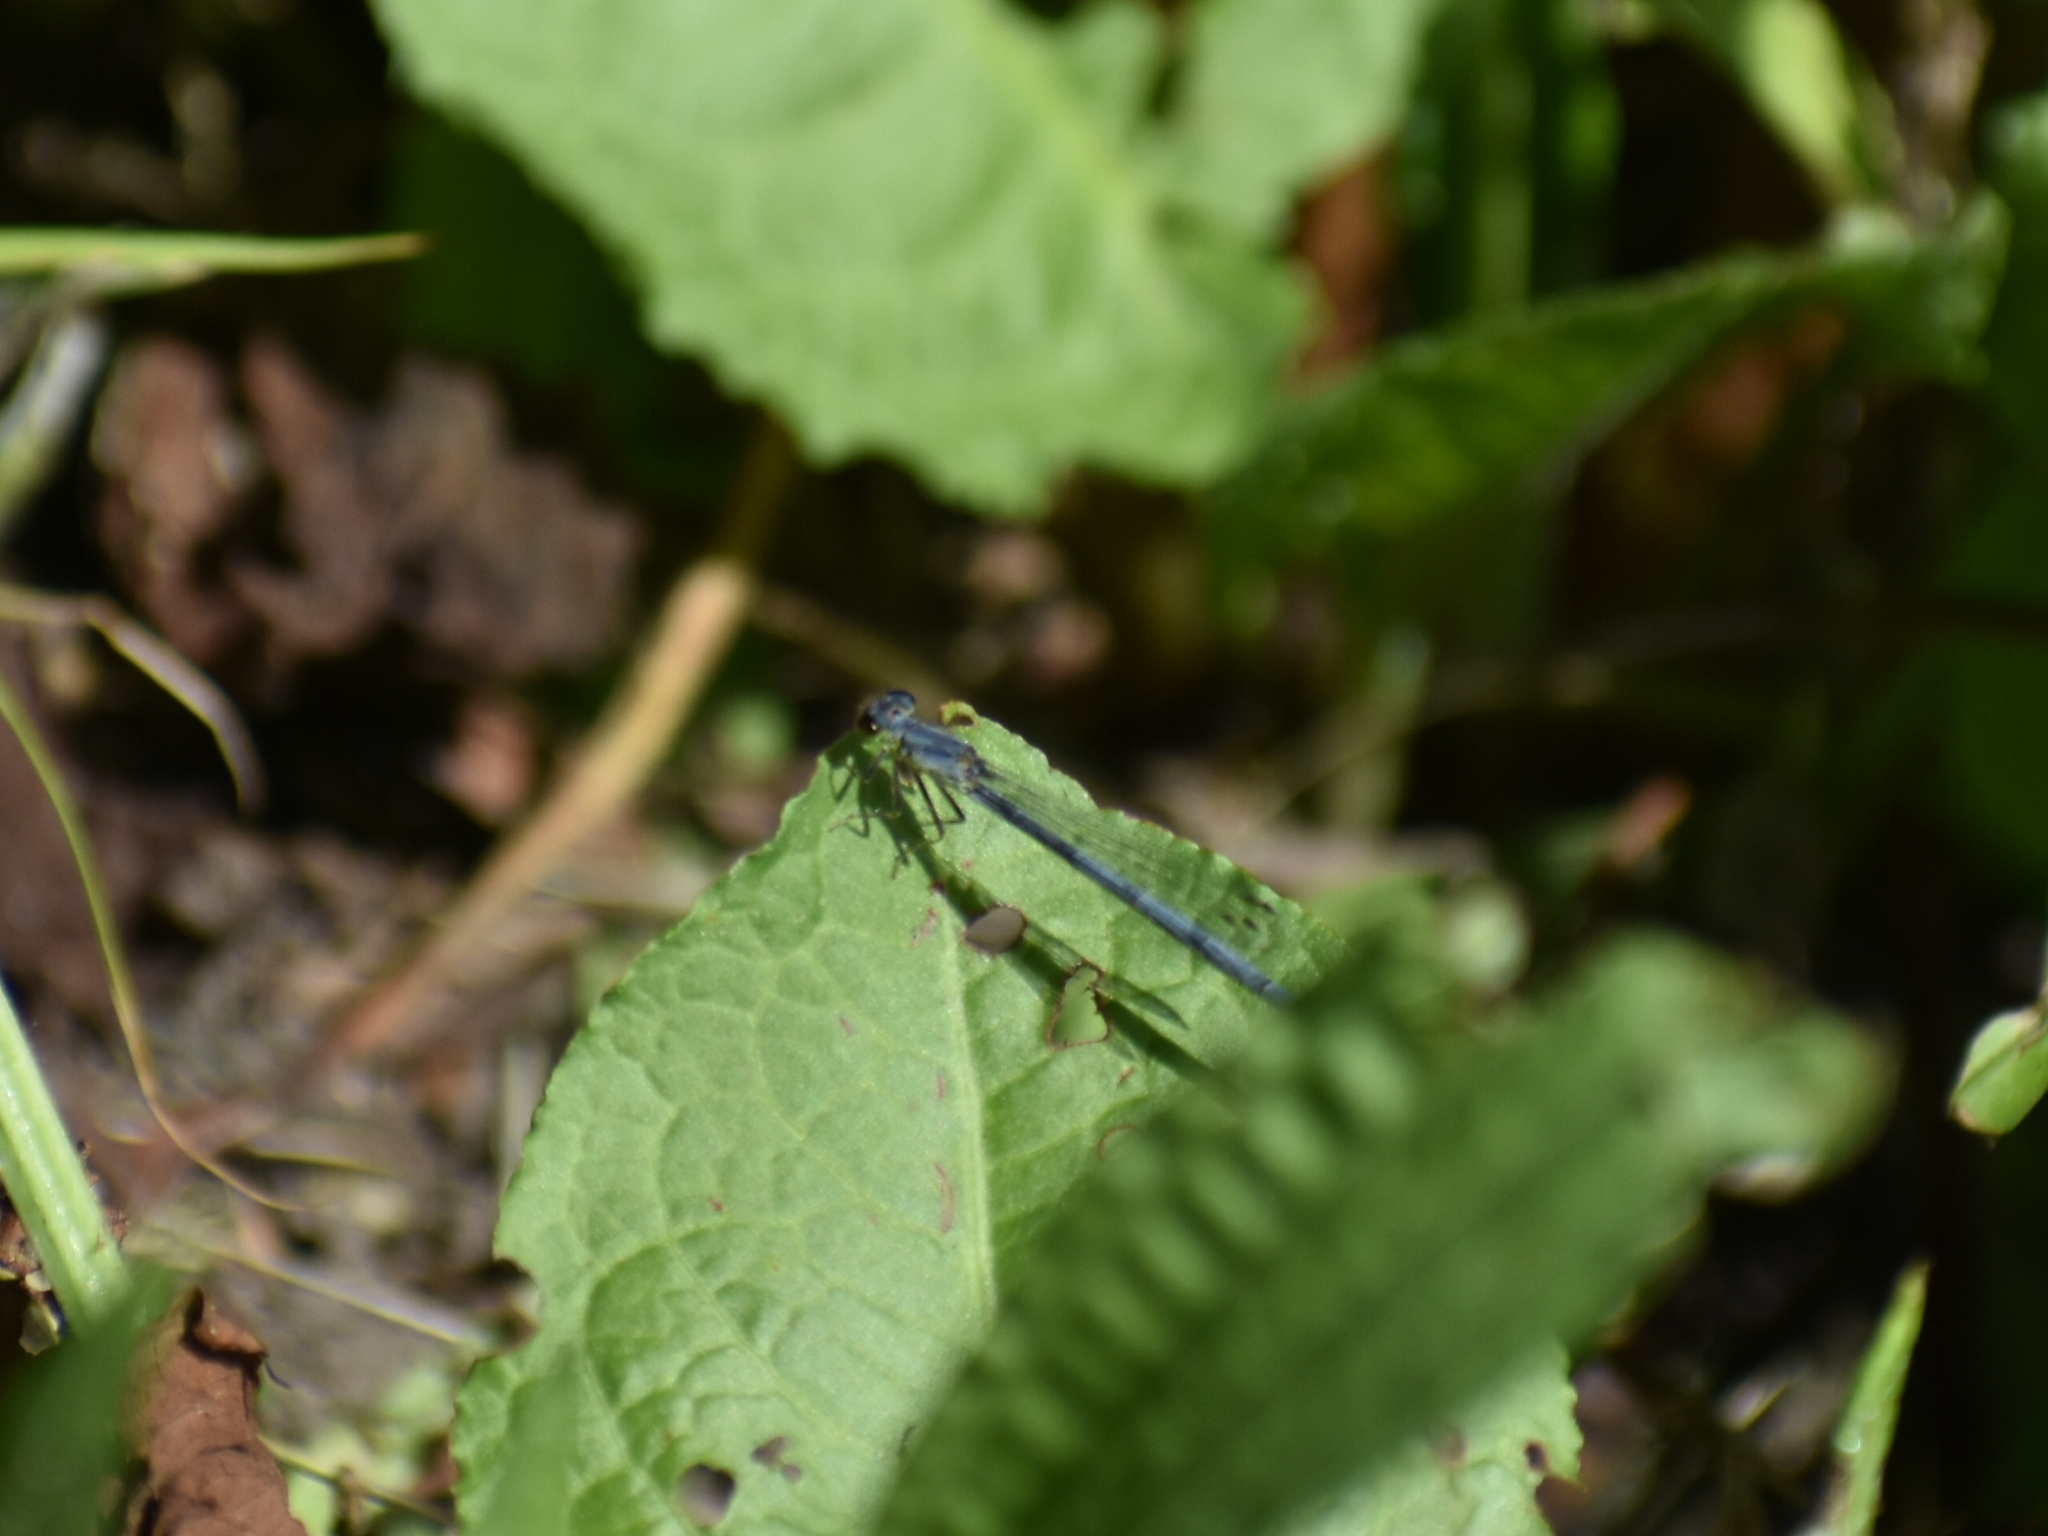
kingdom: Animalia
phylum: Arthropoda
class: Insecta
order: Odonata
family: Coenagrionidae
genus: Ischnura
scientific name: Ischnura posita
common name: Fragile forktail
